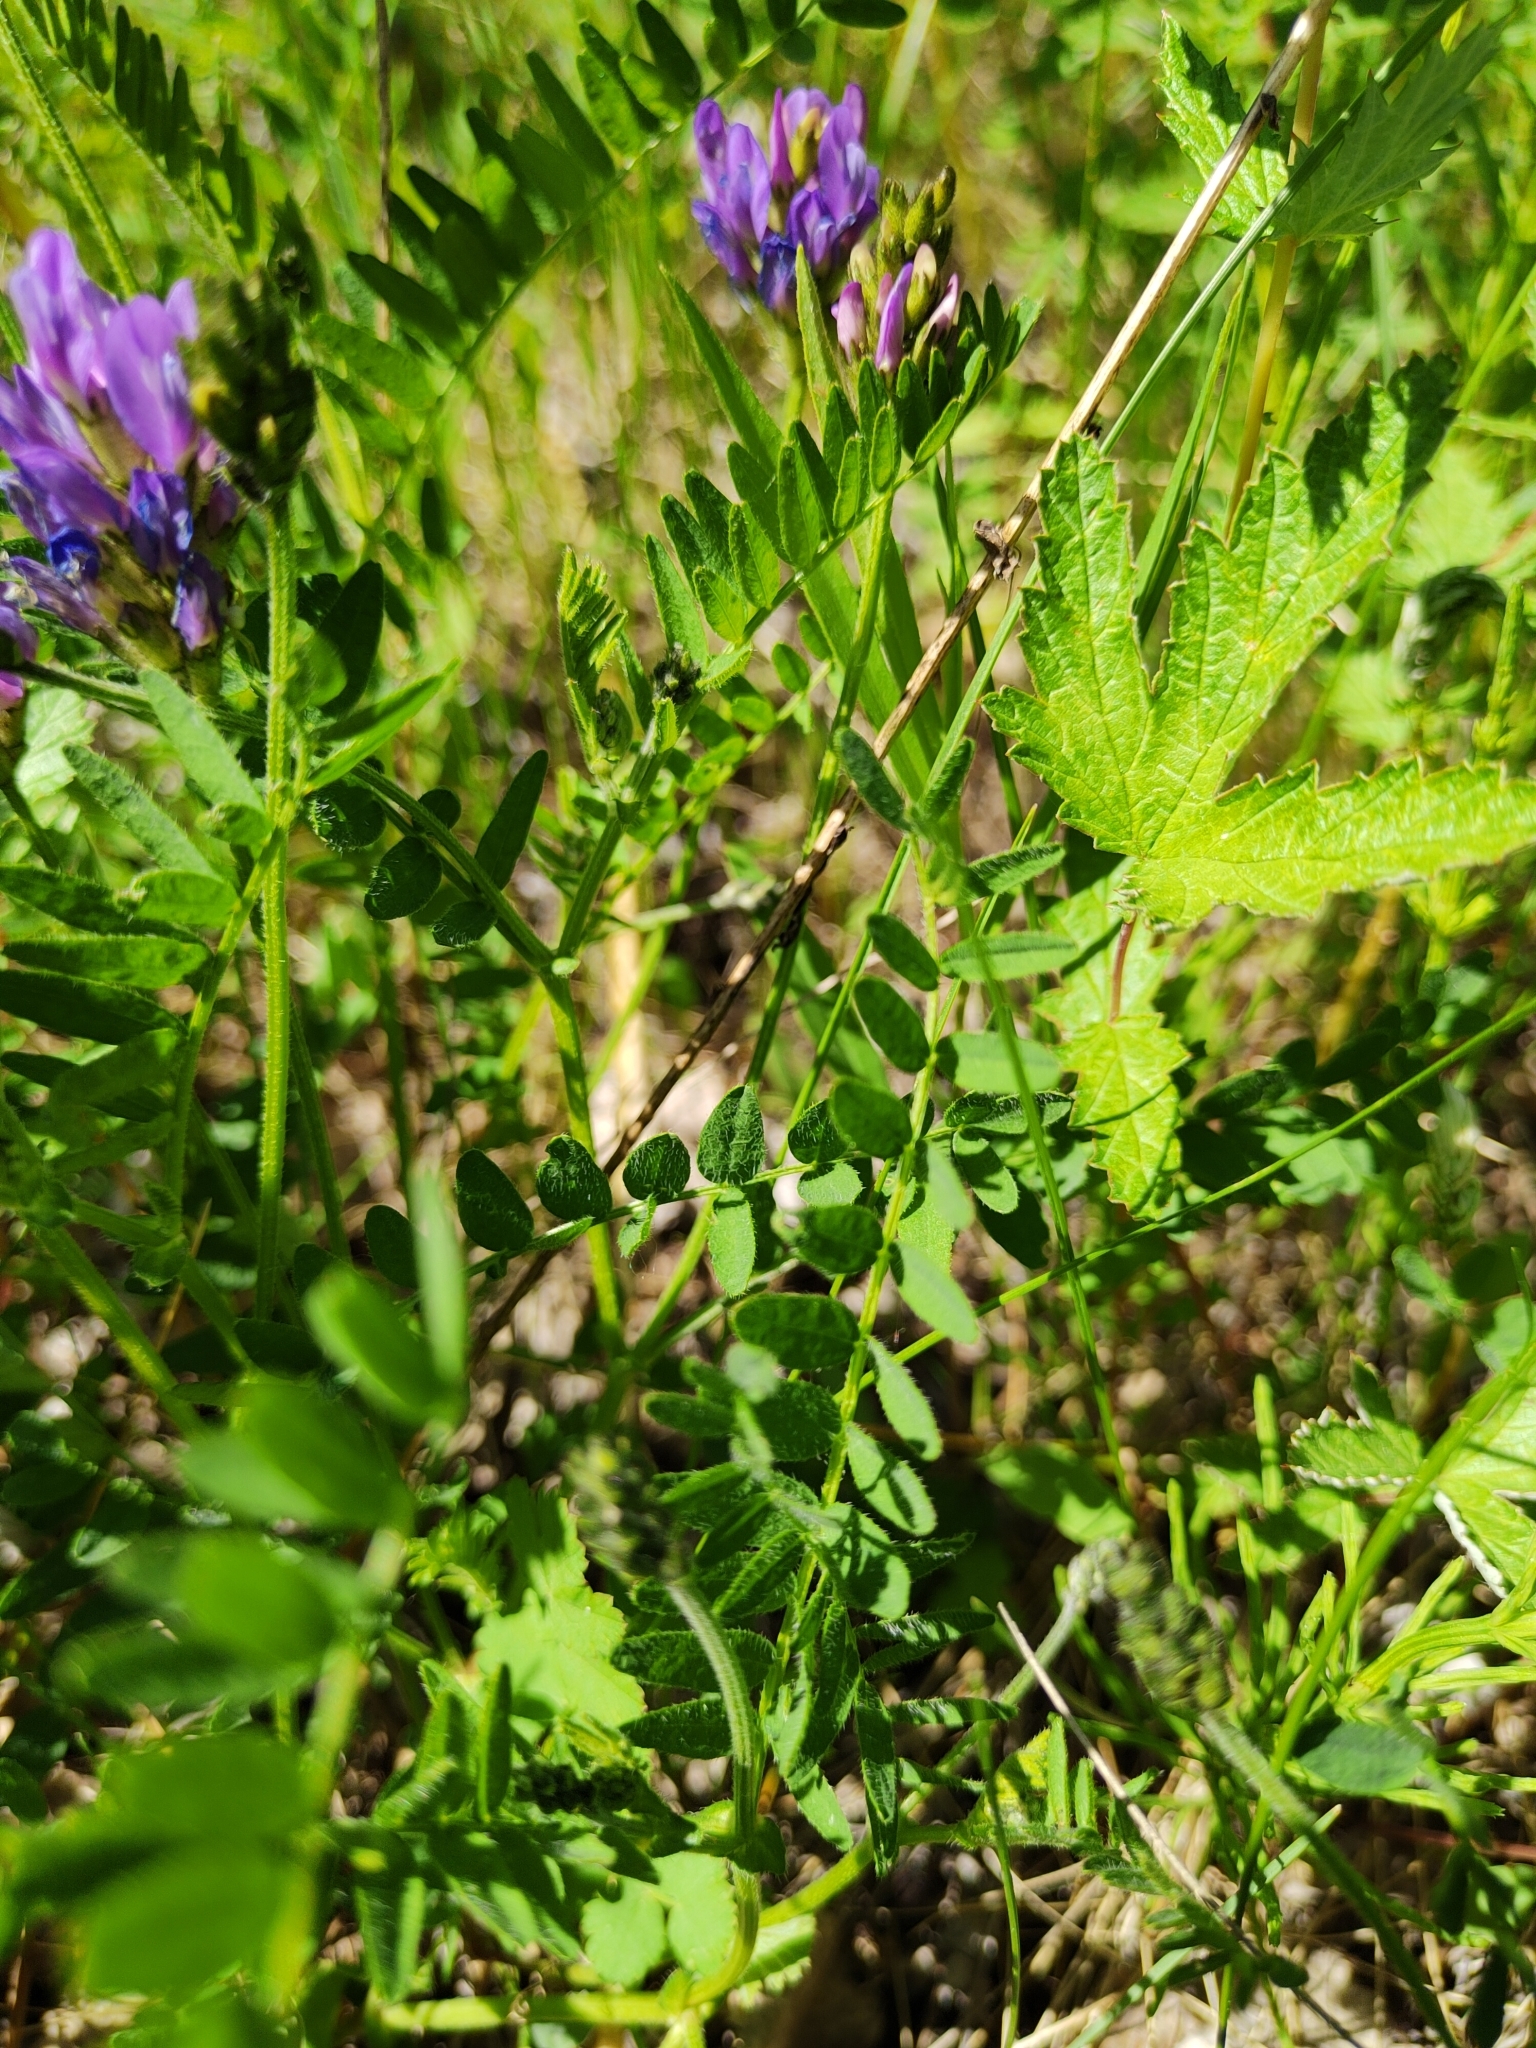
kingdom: Plantae
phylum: Tracheophyta
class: Magnoliopsida
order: Fabales
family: Fabaceae
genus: Astragalus
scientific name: Astragalus danicus
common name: Purple milk-vetch
